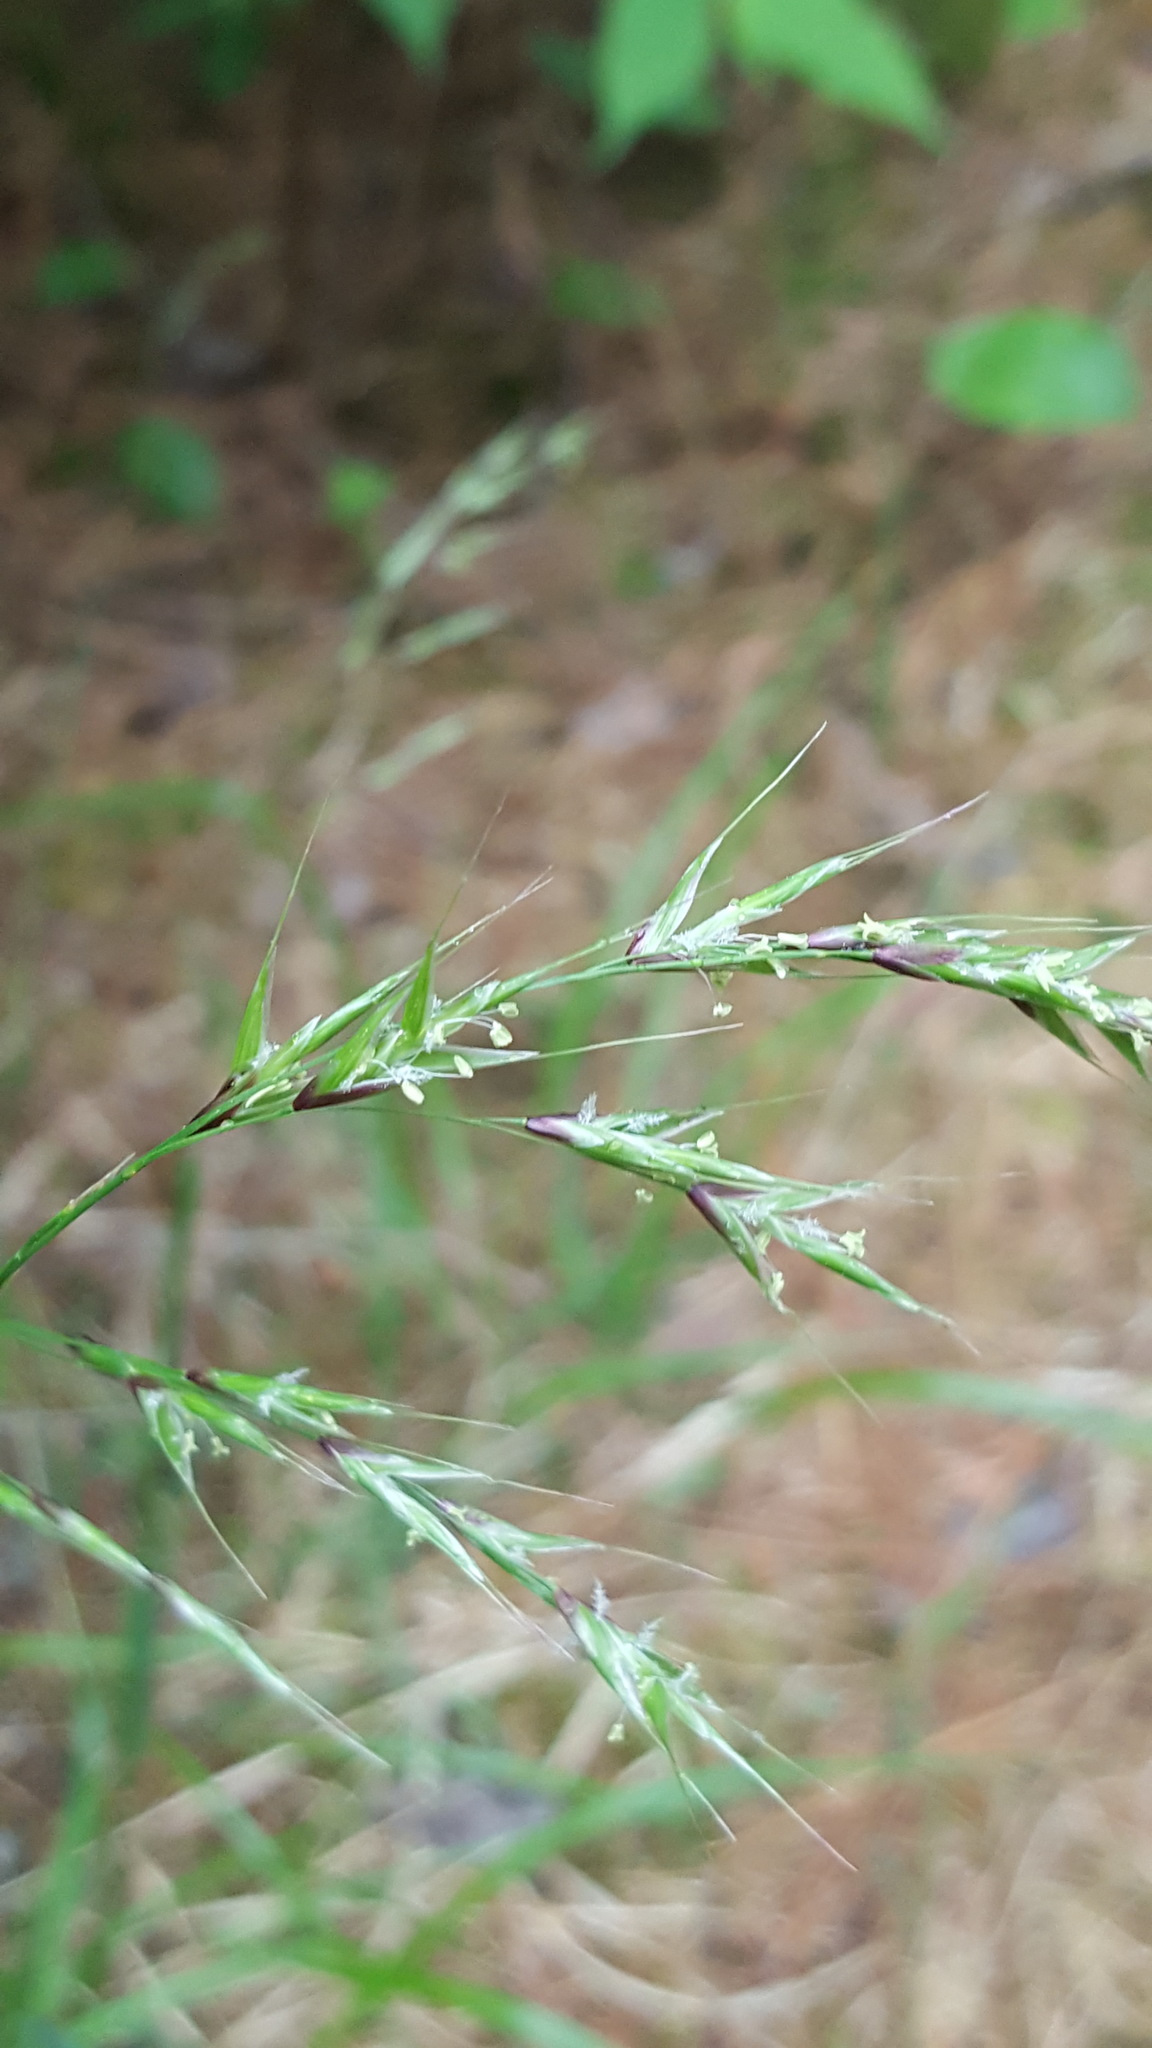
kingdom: Plantae
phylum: Tracheophyta
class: Liliopsida
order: Poales
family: Poaceae
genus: Schizachne
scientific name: Schizachne purpurascens
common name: False melic
